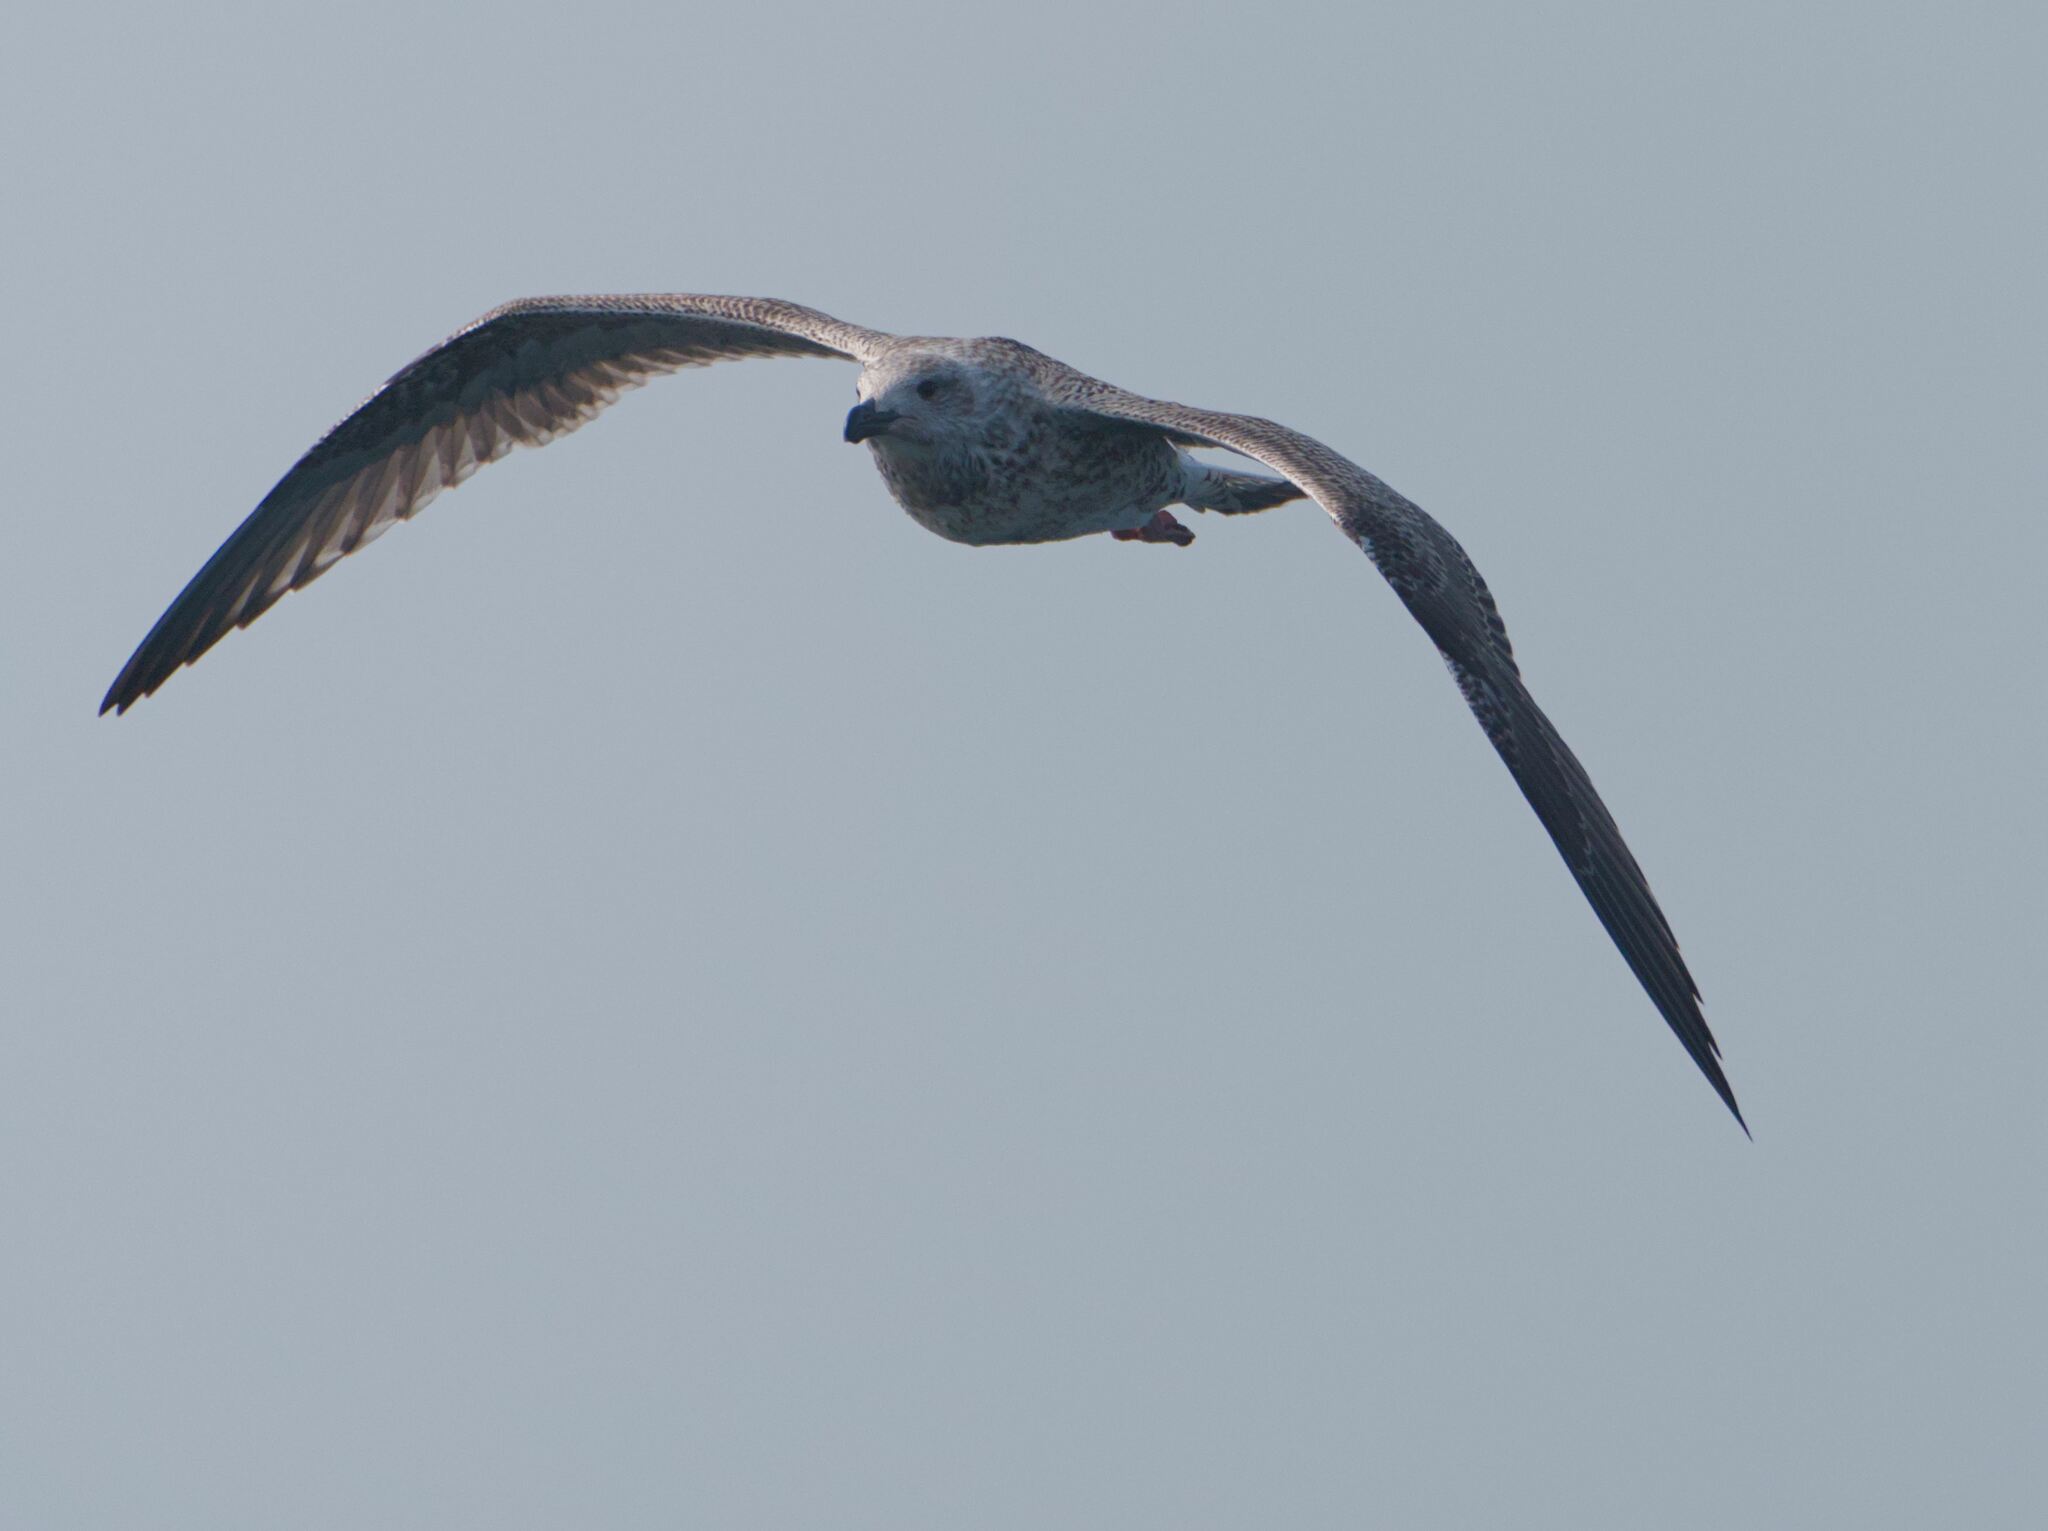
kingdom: Animalia
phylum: Chordata
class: Aves
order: Charadriiformes
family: Laridae
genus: Larus
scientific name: Larus argentatus
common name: Herring gull
